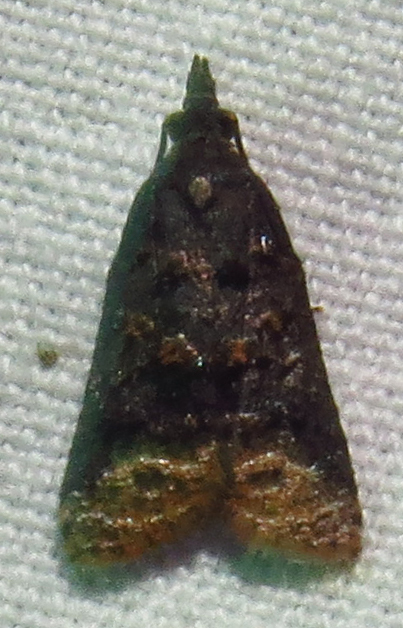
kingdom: Animalia
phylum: Arthropoda
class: Insecta
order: Lepidoptera
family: Tortricidae
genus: Platynota
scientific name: Platynota idaeusalis
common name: Tufted apple bud moth
